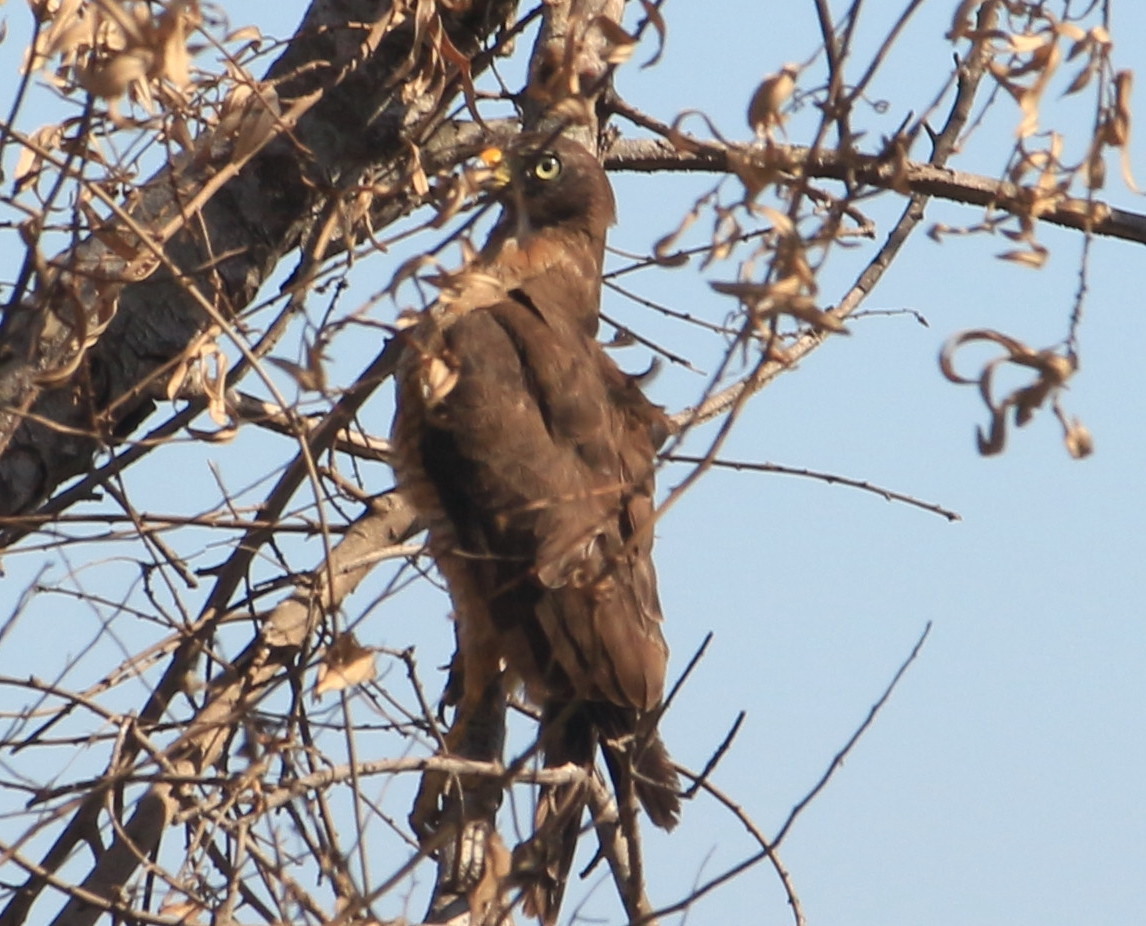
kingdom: Animalia
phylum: Chordata
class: Aves
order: Accipitriformes
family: Accipitridae
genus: Rupornis
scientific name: Rupornis magnirostris
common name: Roadside hawk
